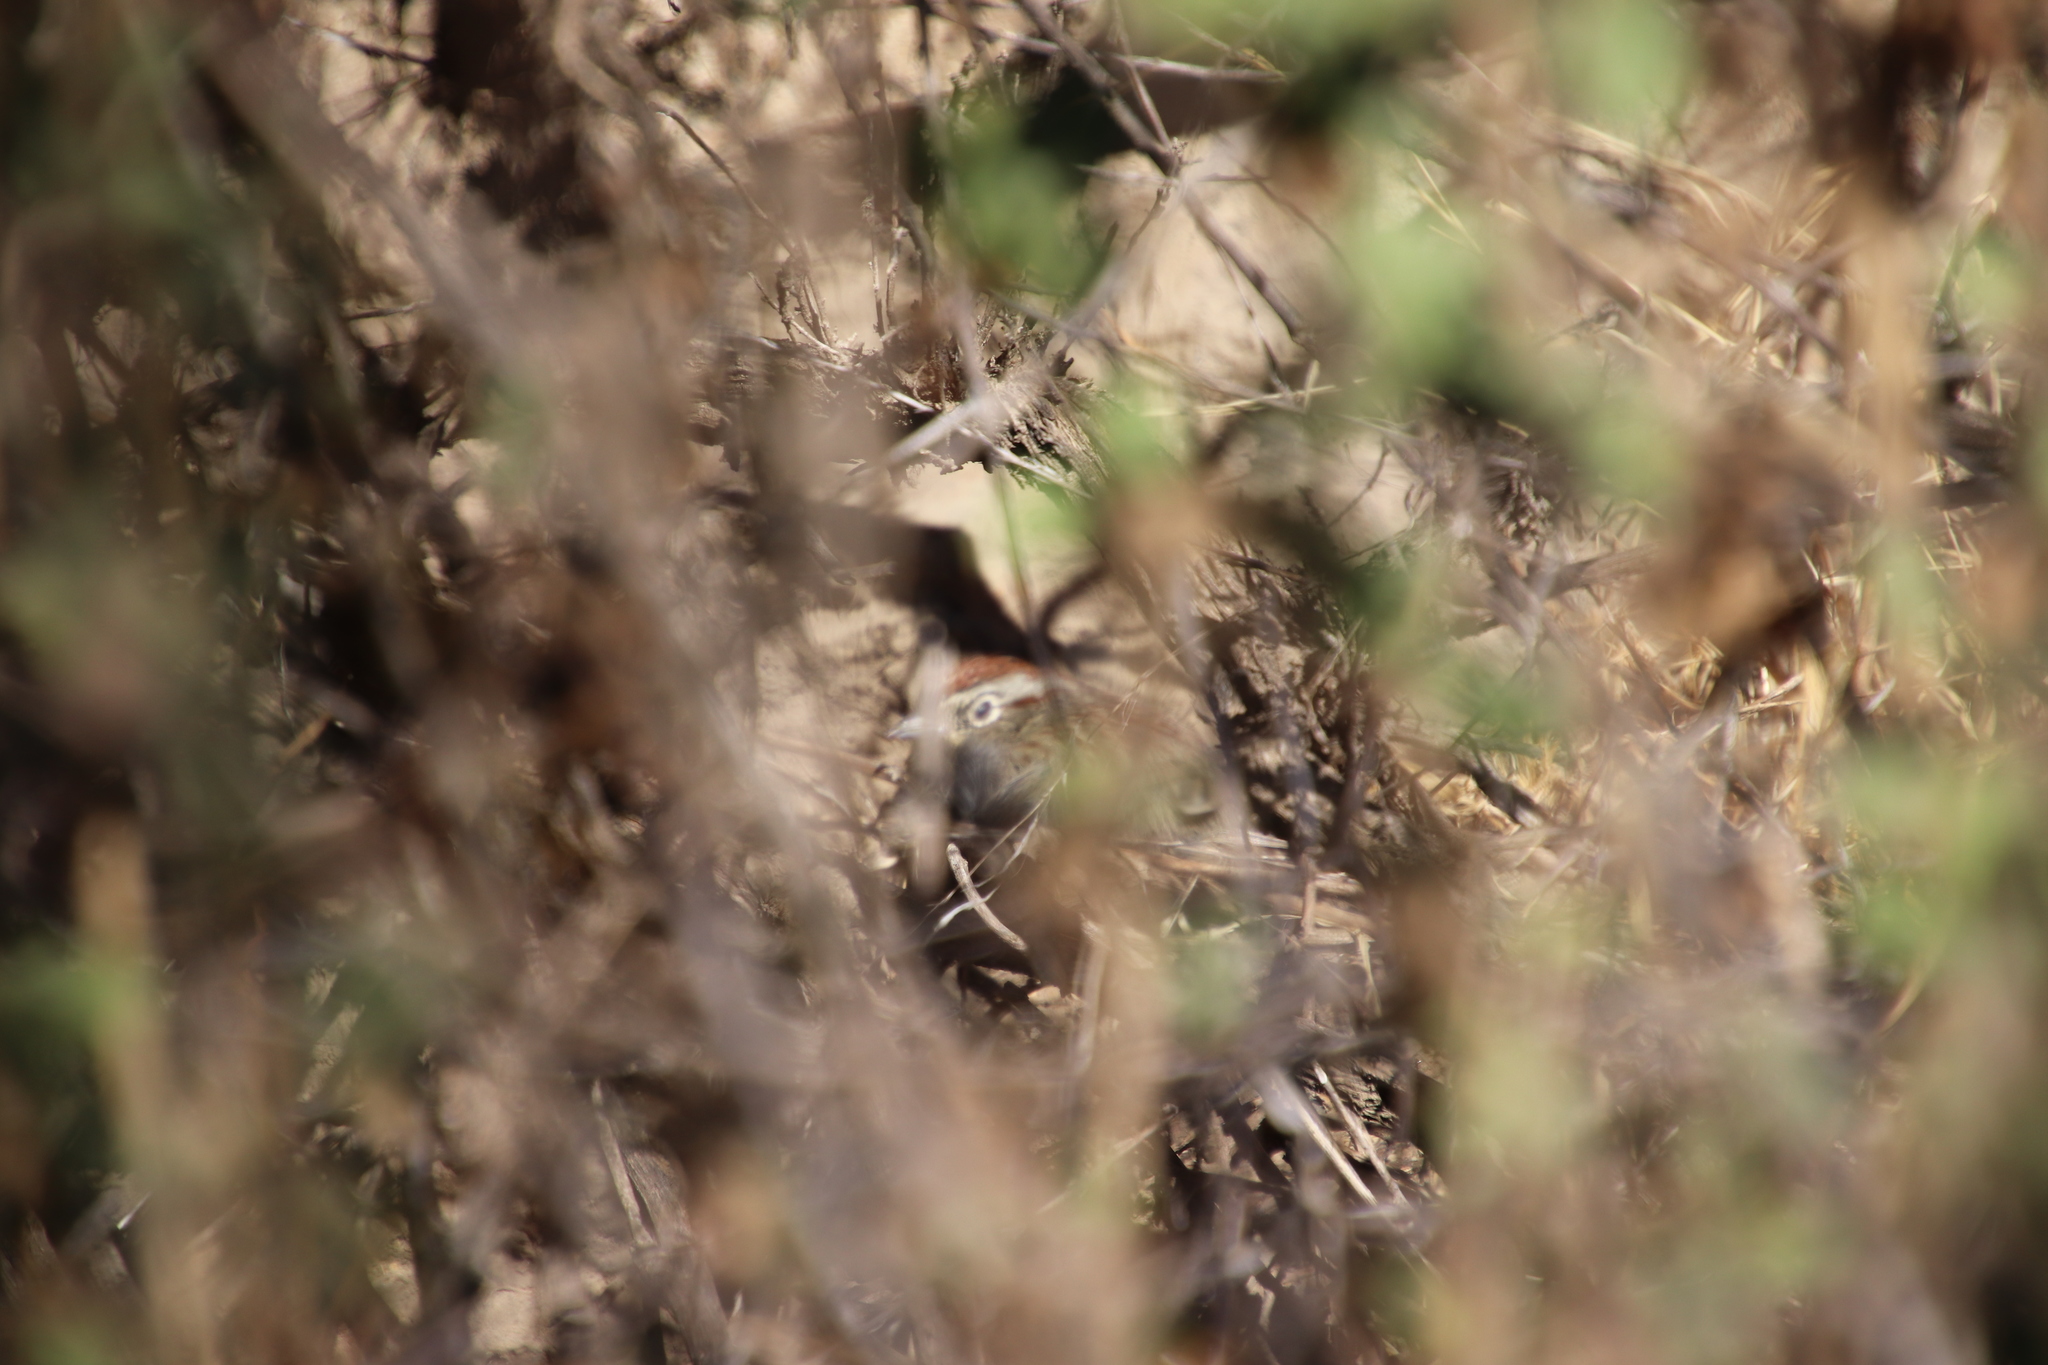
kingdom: Animalia
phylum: Chordata
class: Aves
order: Passeriformes
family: Passerellidae
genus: Aimophila
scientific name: Aimophila ruficeps
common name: Rufous-crowned sparrow
